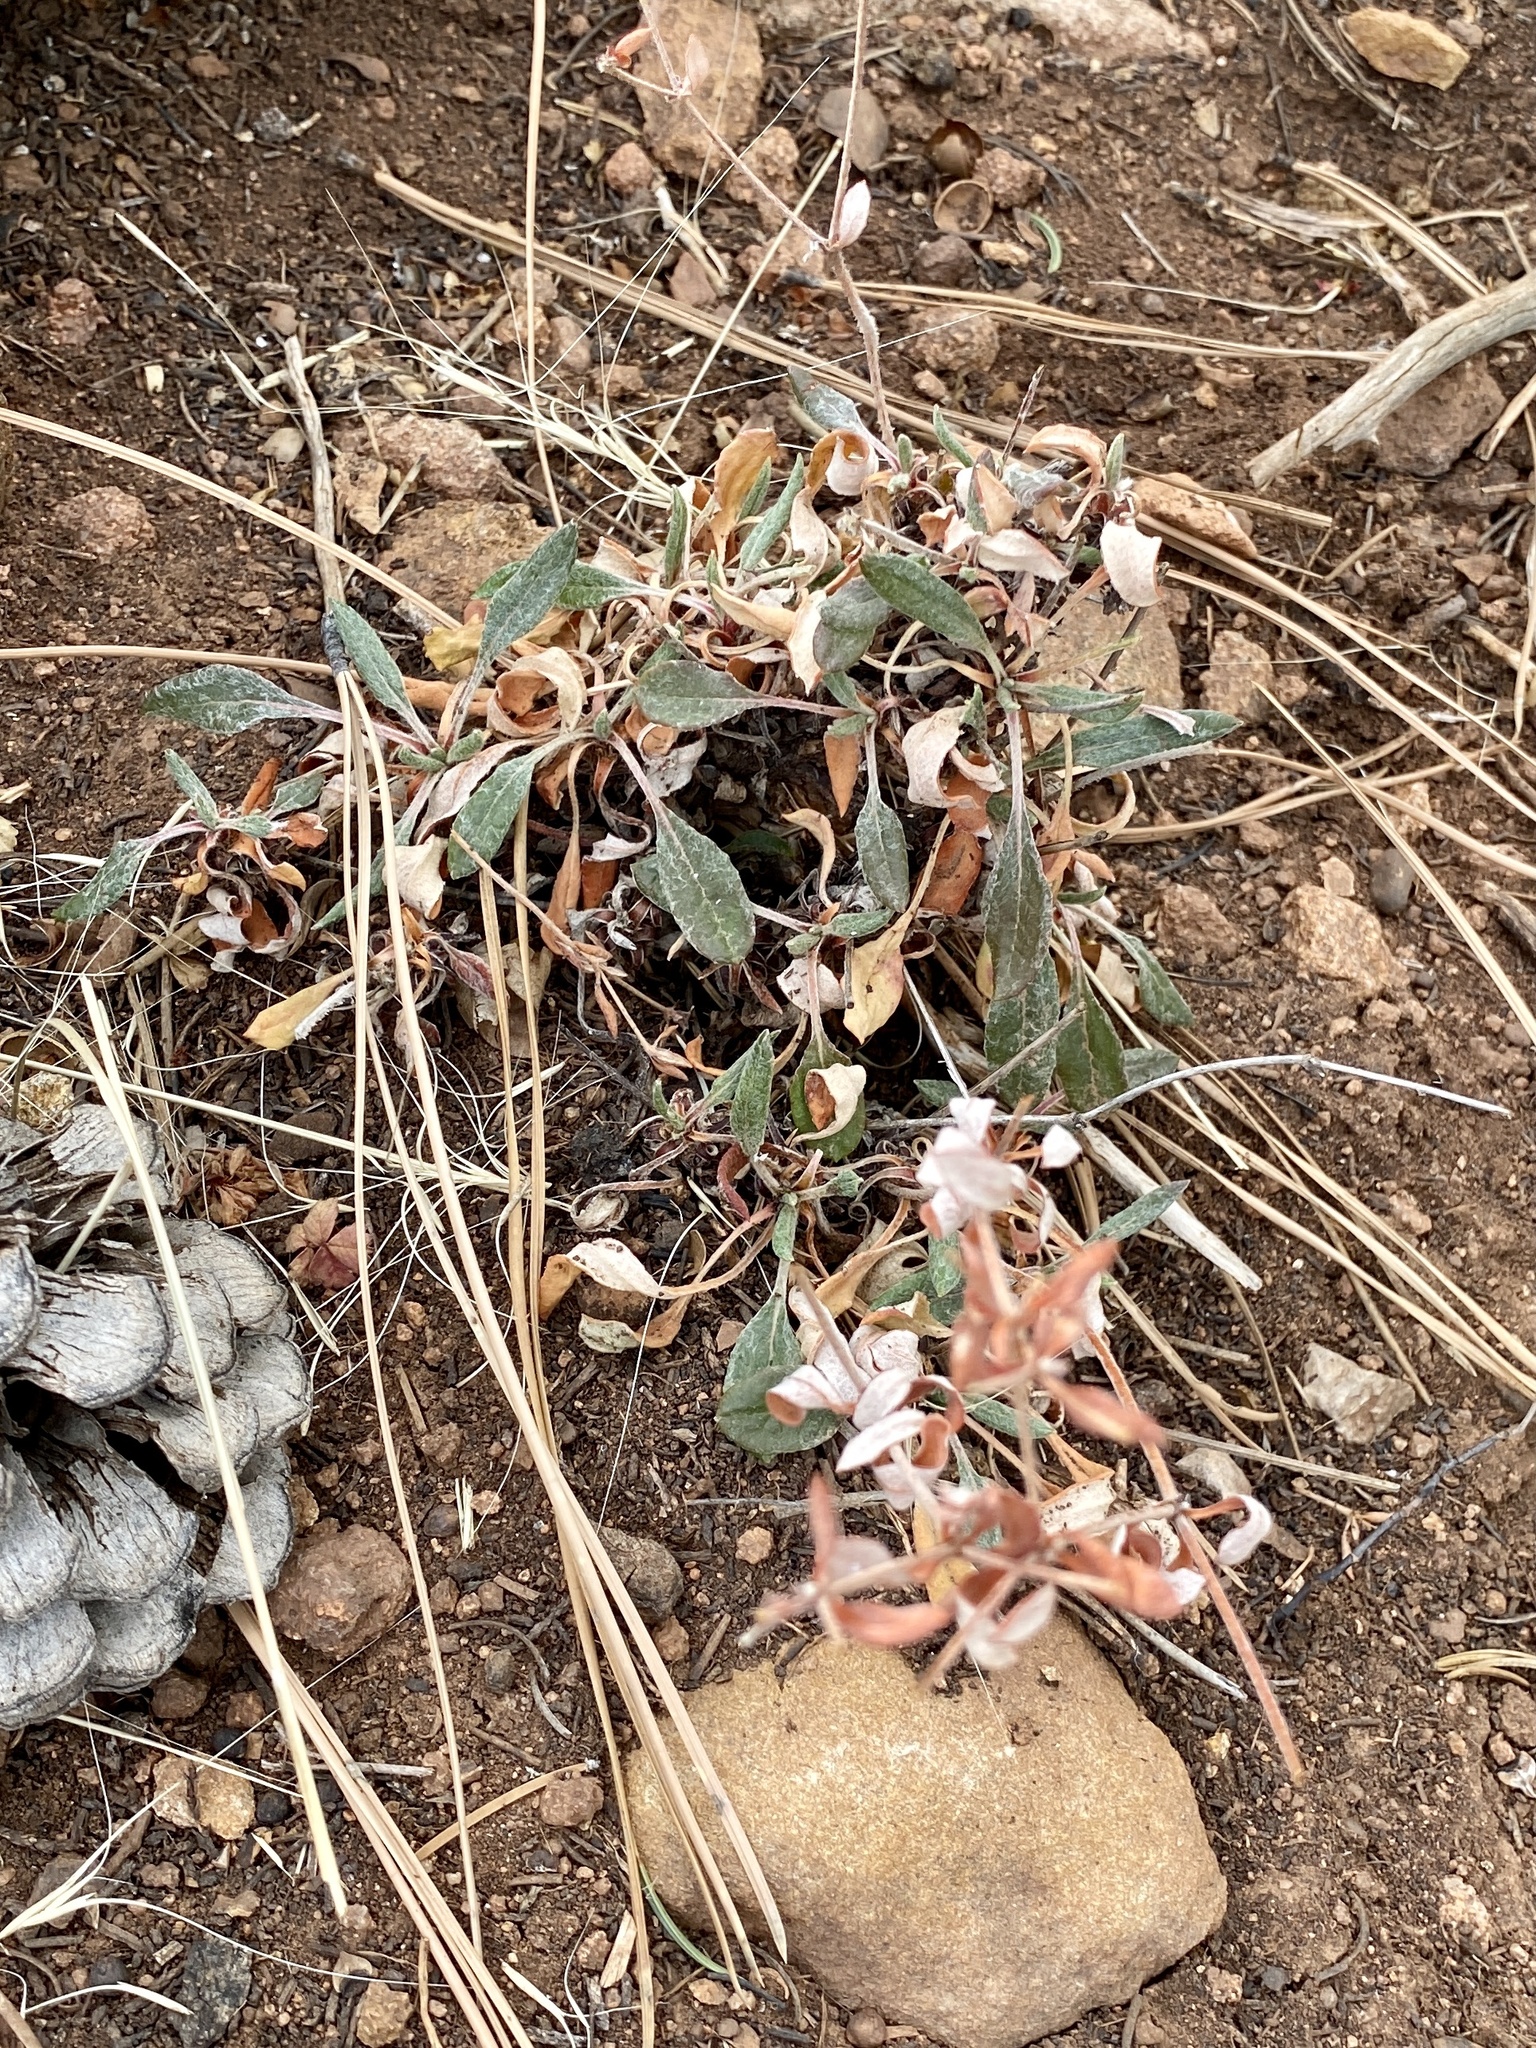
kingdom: Plantae
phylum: Tracheophyta
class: Magnoliopsida
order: Caryophyllales
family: Polygonaceae
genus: Eriogonum
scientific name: Eriogonum wootonii
